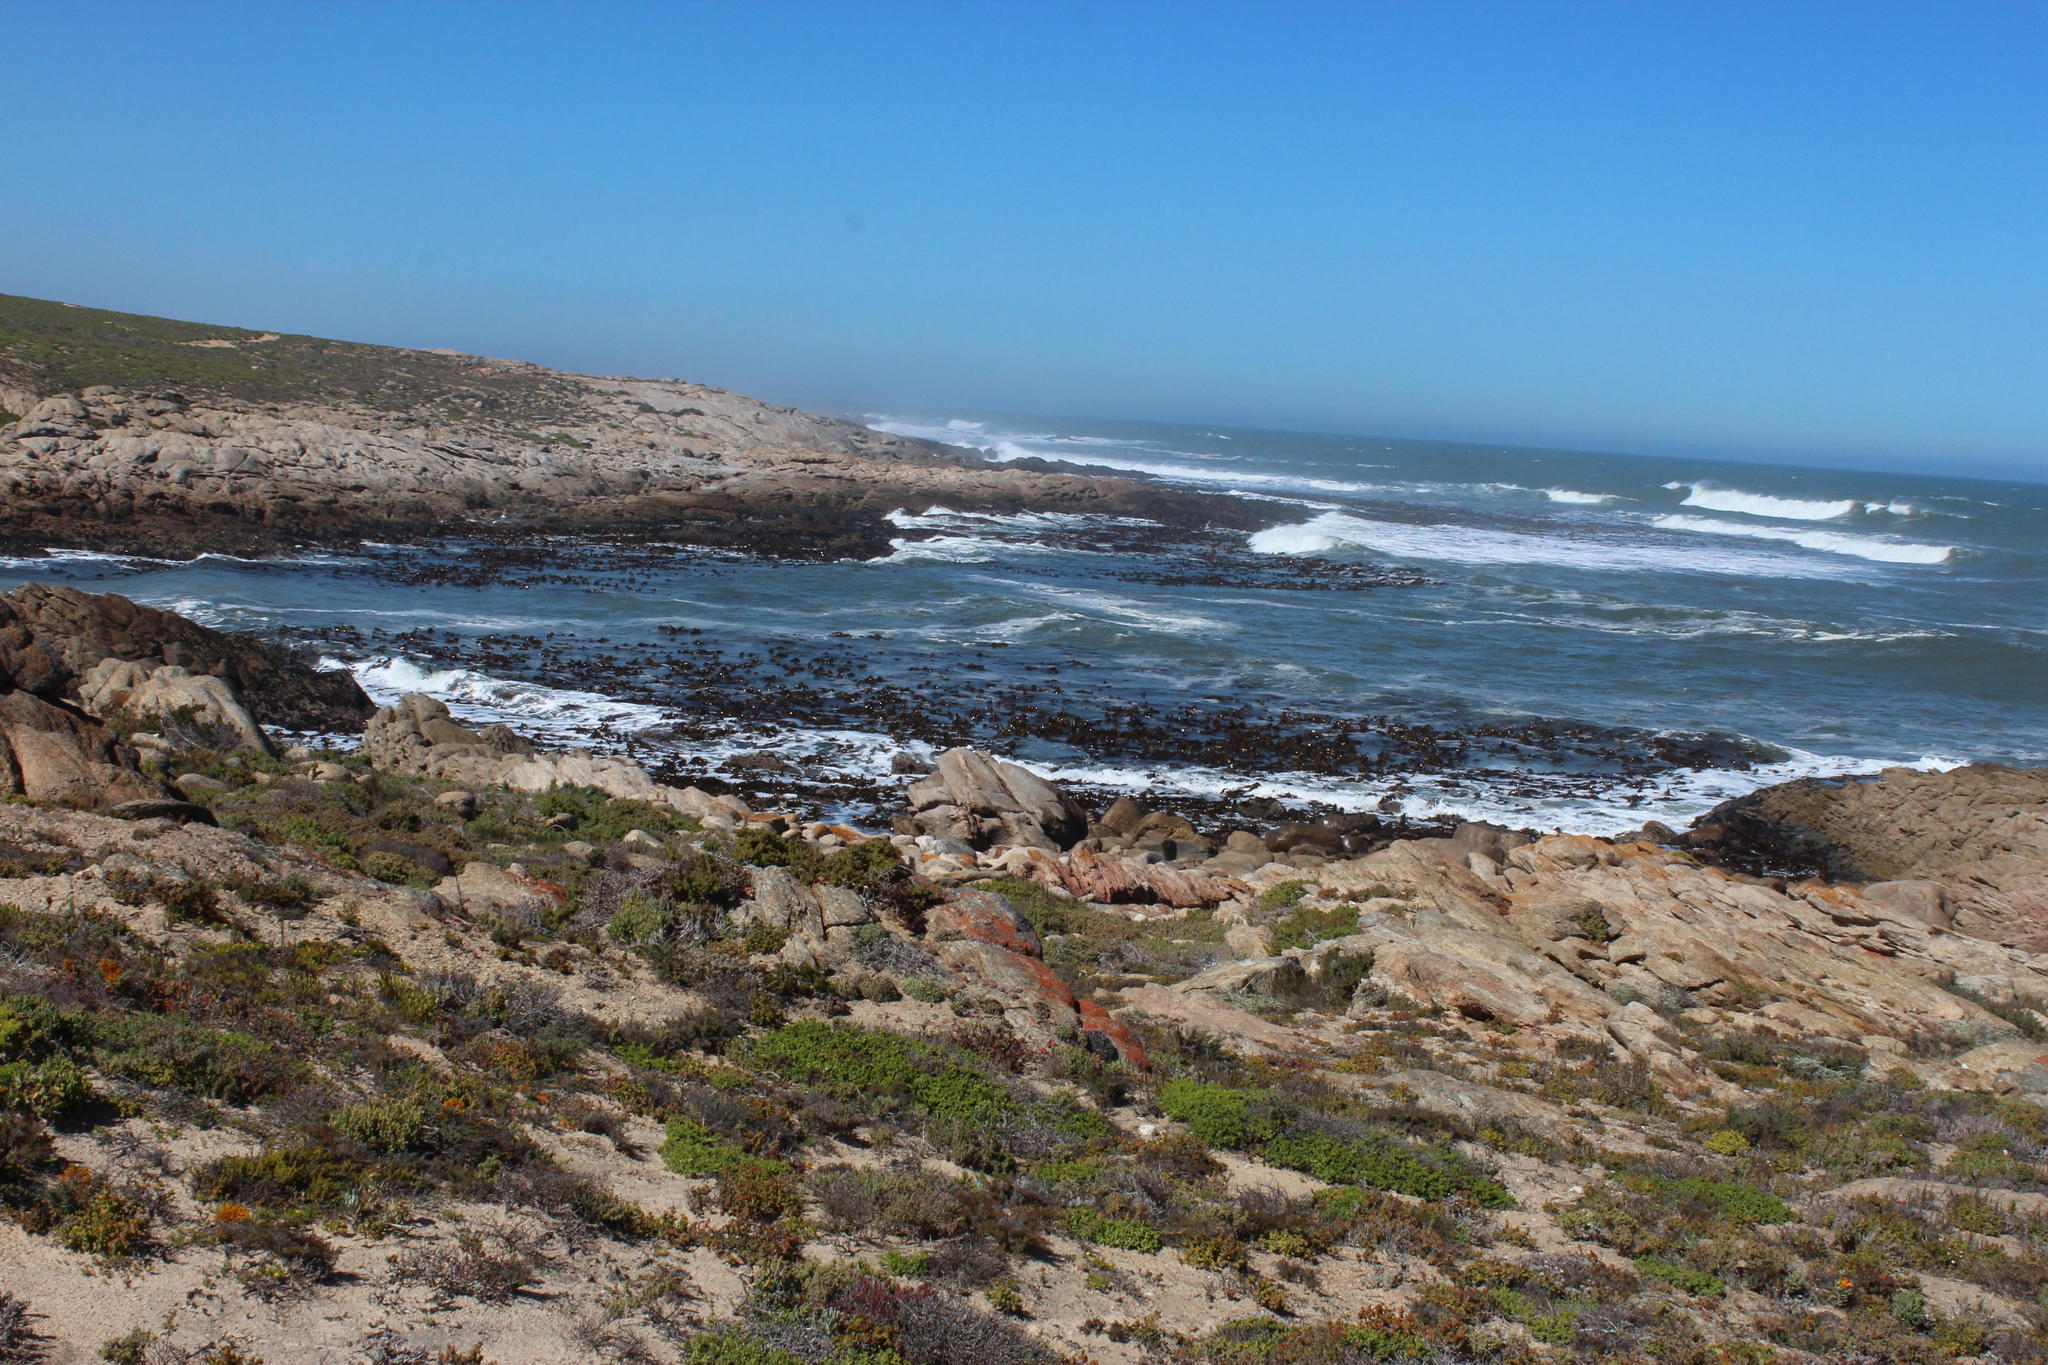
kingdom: Chromista
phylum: Ochrophyta
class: Phaeophyceae
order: Laminariales
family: Lessoniaceae
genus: Ecklonia
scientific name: Ecklonia
